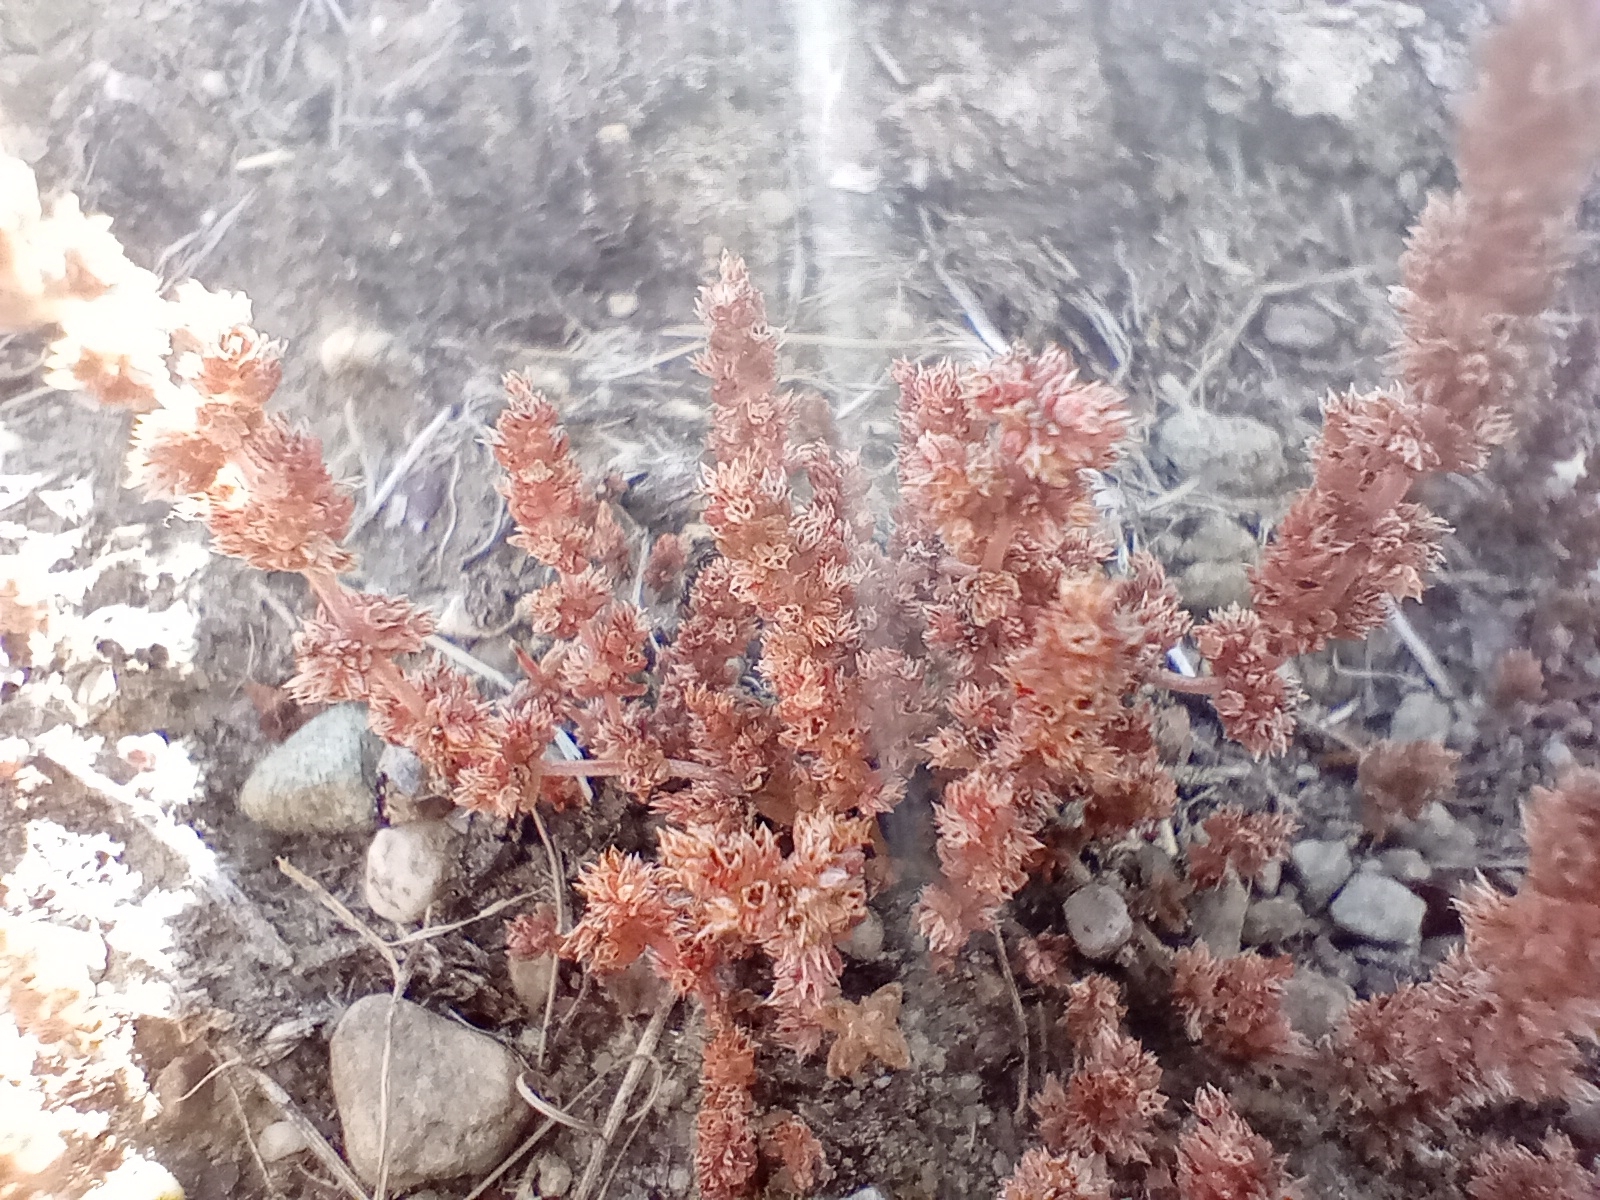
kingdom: Plantae
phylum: Tracheophyta
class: Magnoliopsida
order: Saxifragales
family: Crassulaceae
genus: Crassula
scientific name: Crassula sieberiana
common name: Siberian pygmyweed
